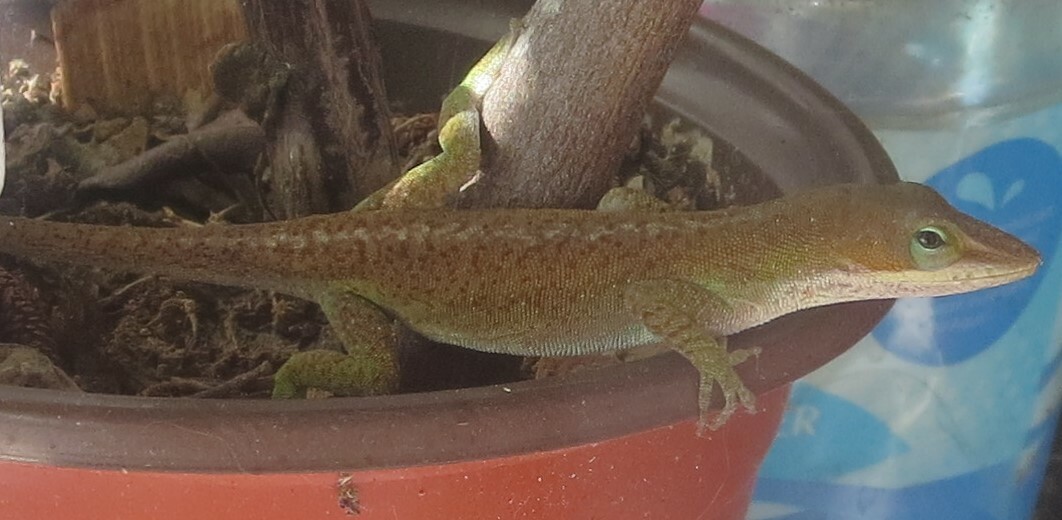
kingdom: Animalia
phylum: Chordata
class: Squamata
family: Dactyloidae
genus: Anolis
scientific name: Anolis carolinensis
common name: Green anole
